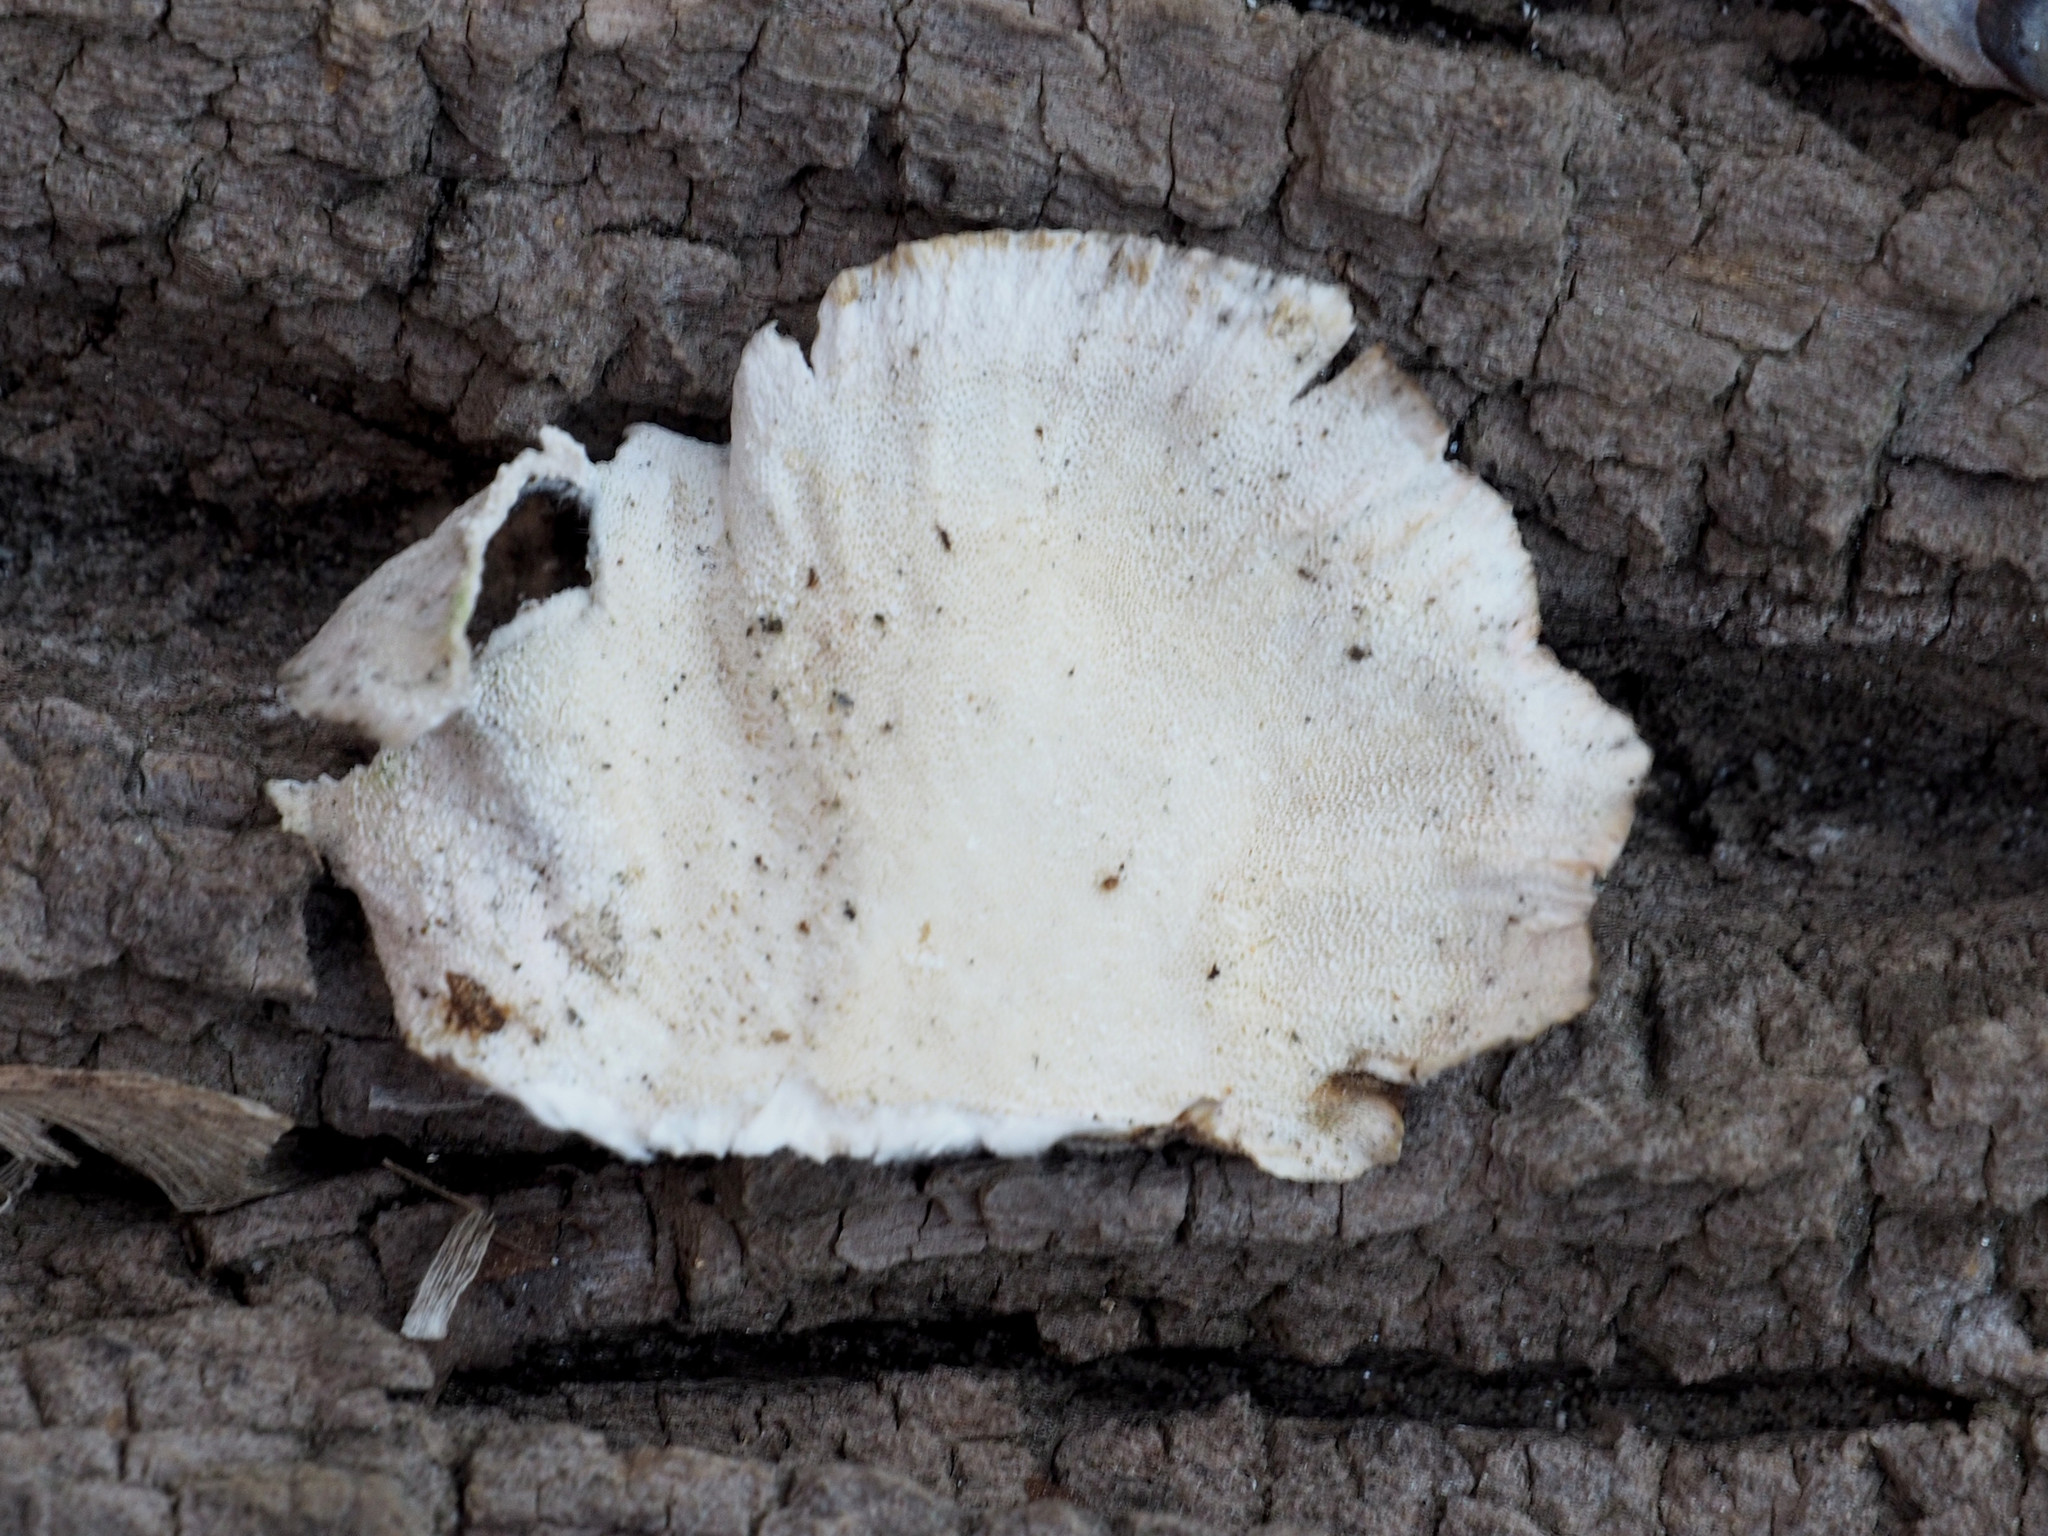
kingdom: Fungi
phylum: Basidiomycota
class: Agaricomycetes
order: Polyporales
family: Polyporaceae
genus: Trametes
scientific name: Trametes versicolor
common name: Turkeytail
